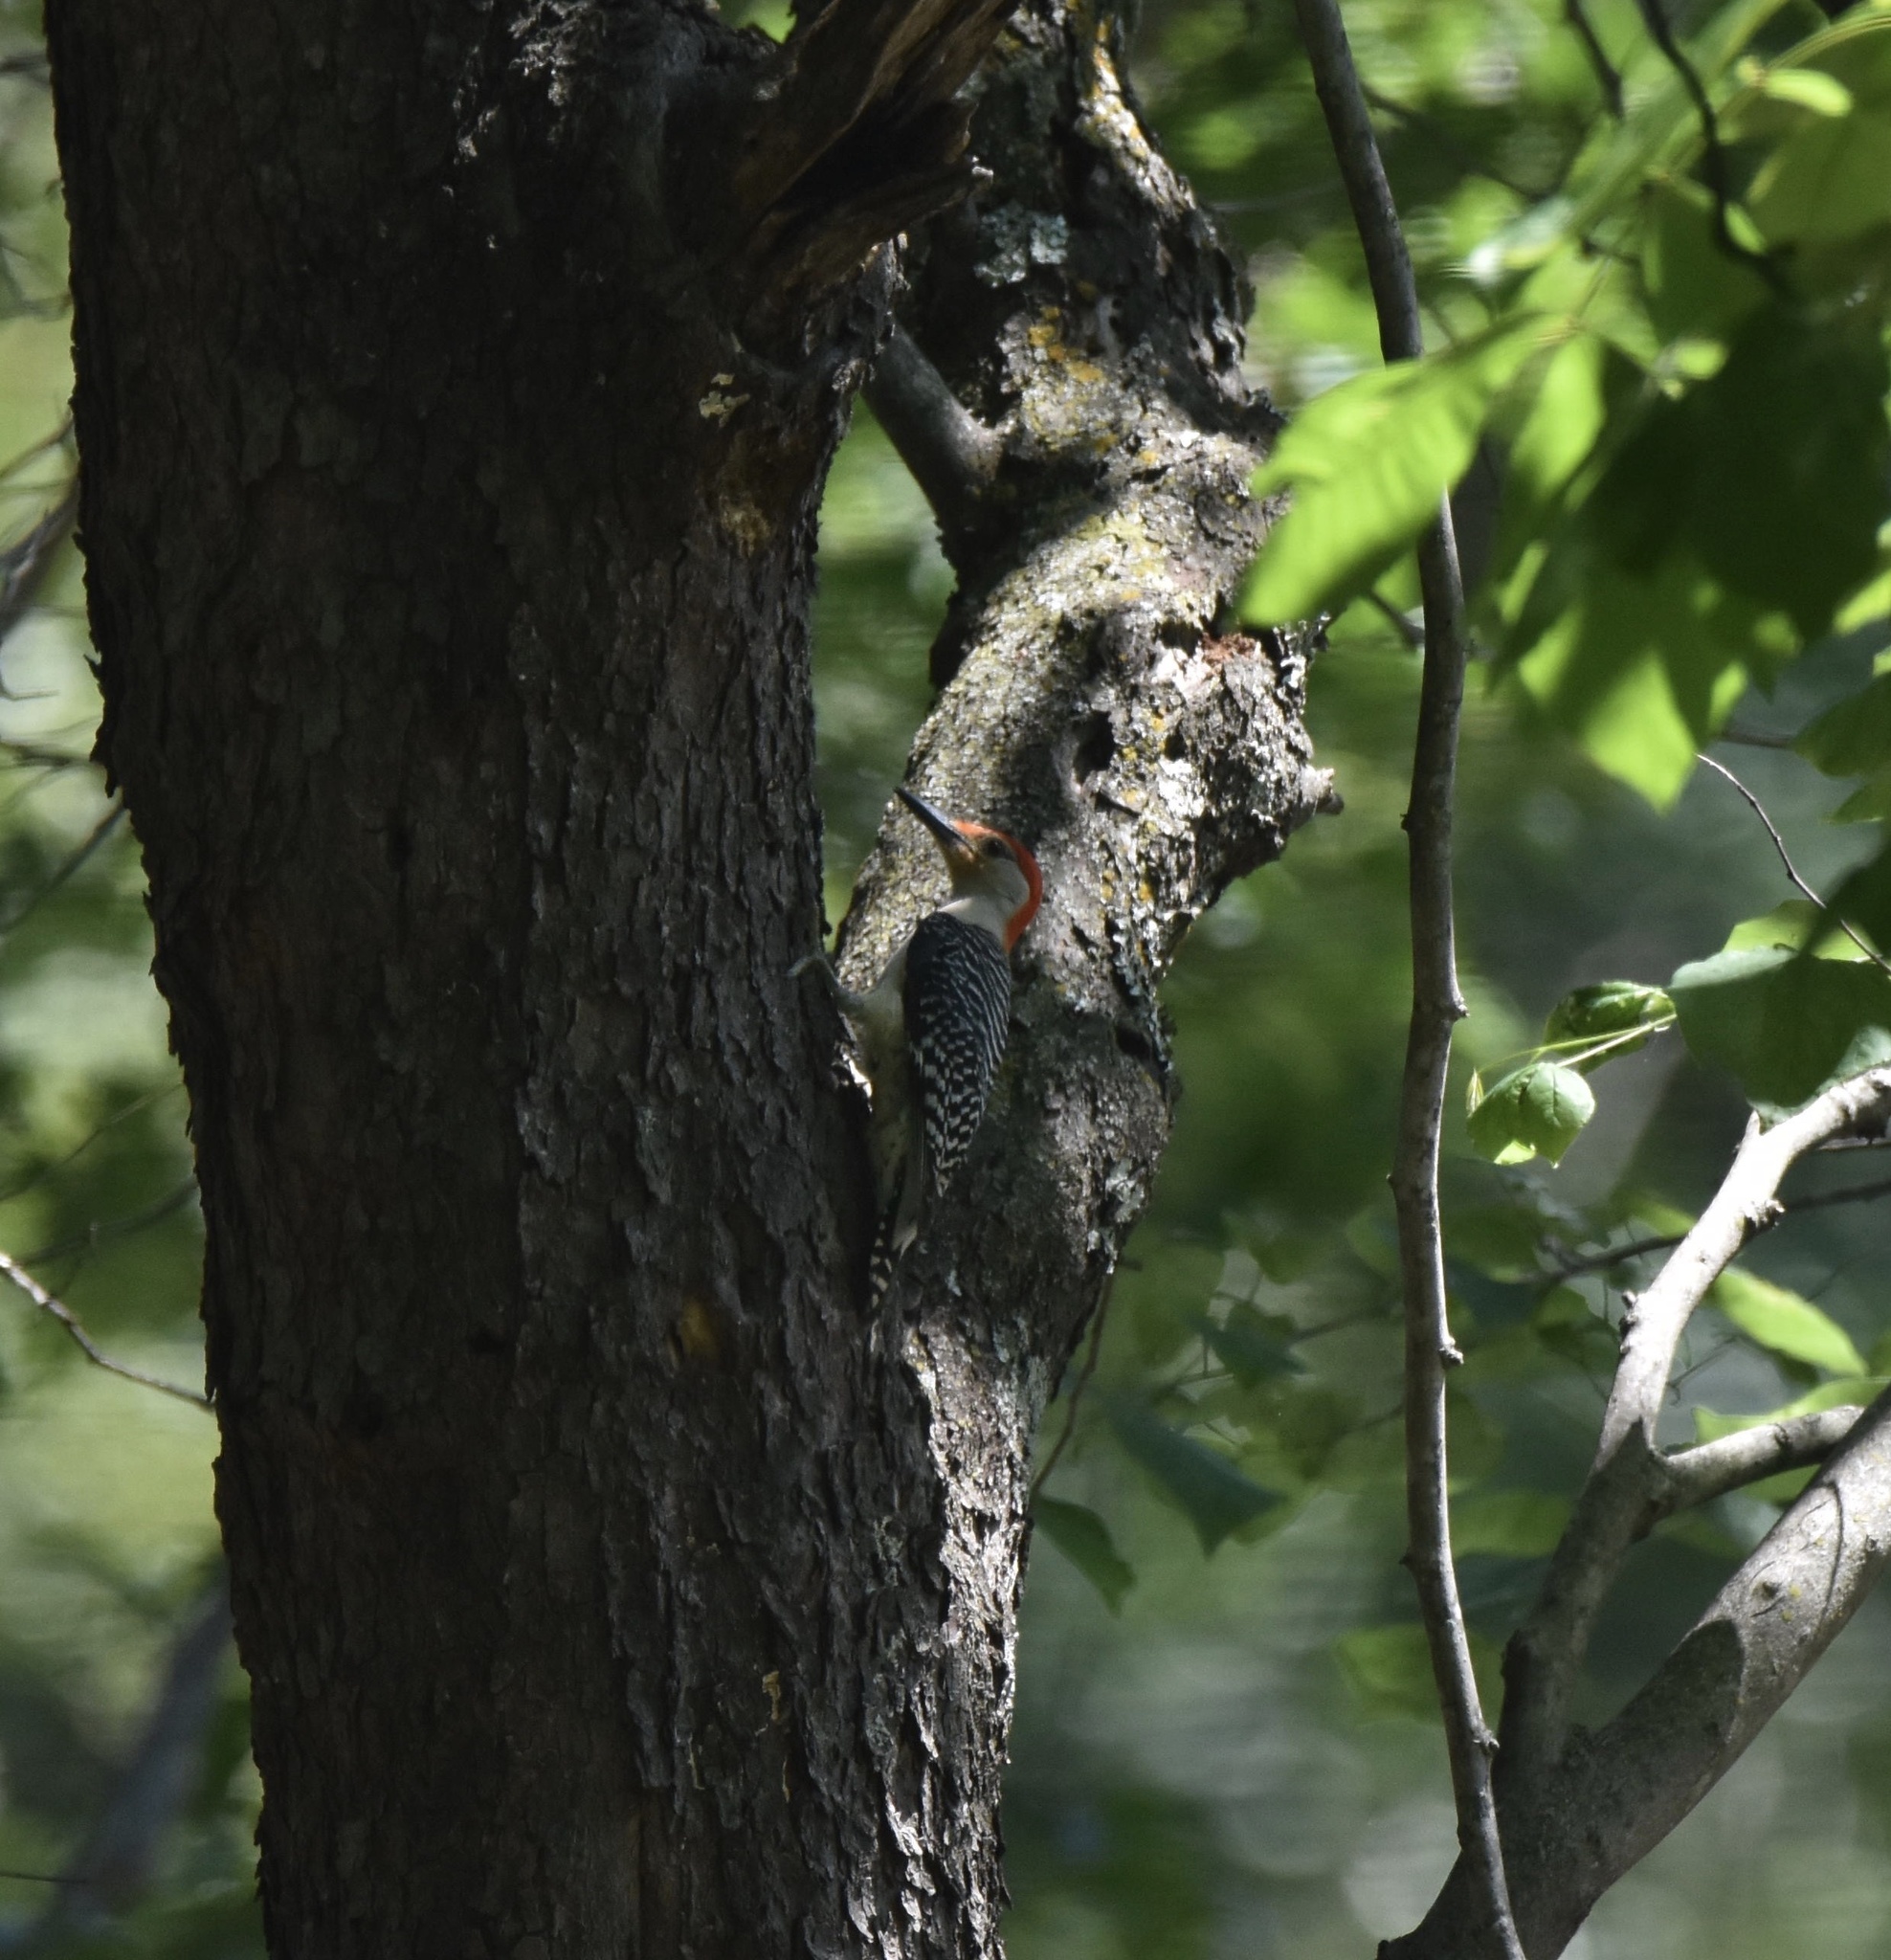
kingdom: Animalia
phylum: Chordata
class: Aves
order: Piciformes
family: Picidae
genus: Melanerpes
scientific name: Melanerpes carolinus
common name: Red-bellied woodpecker
